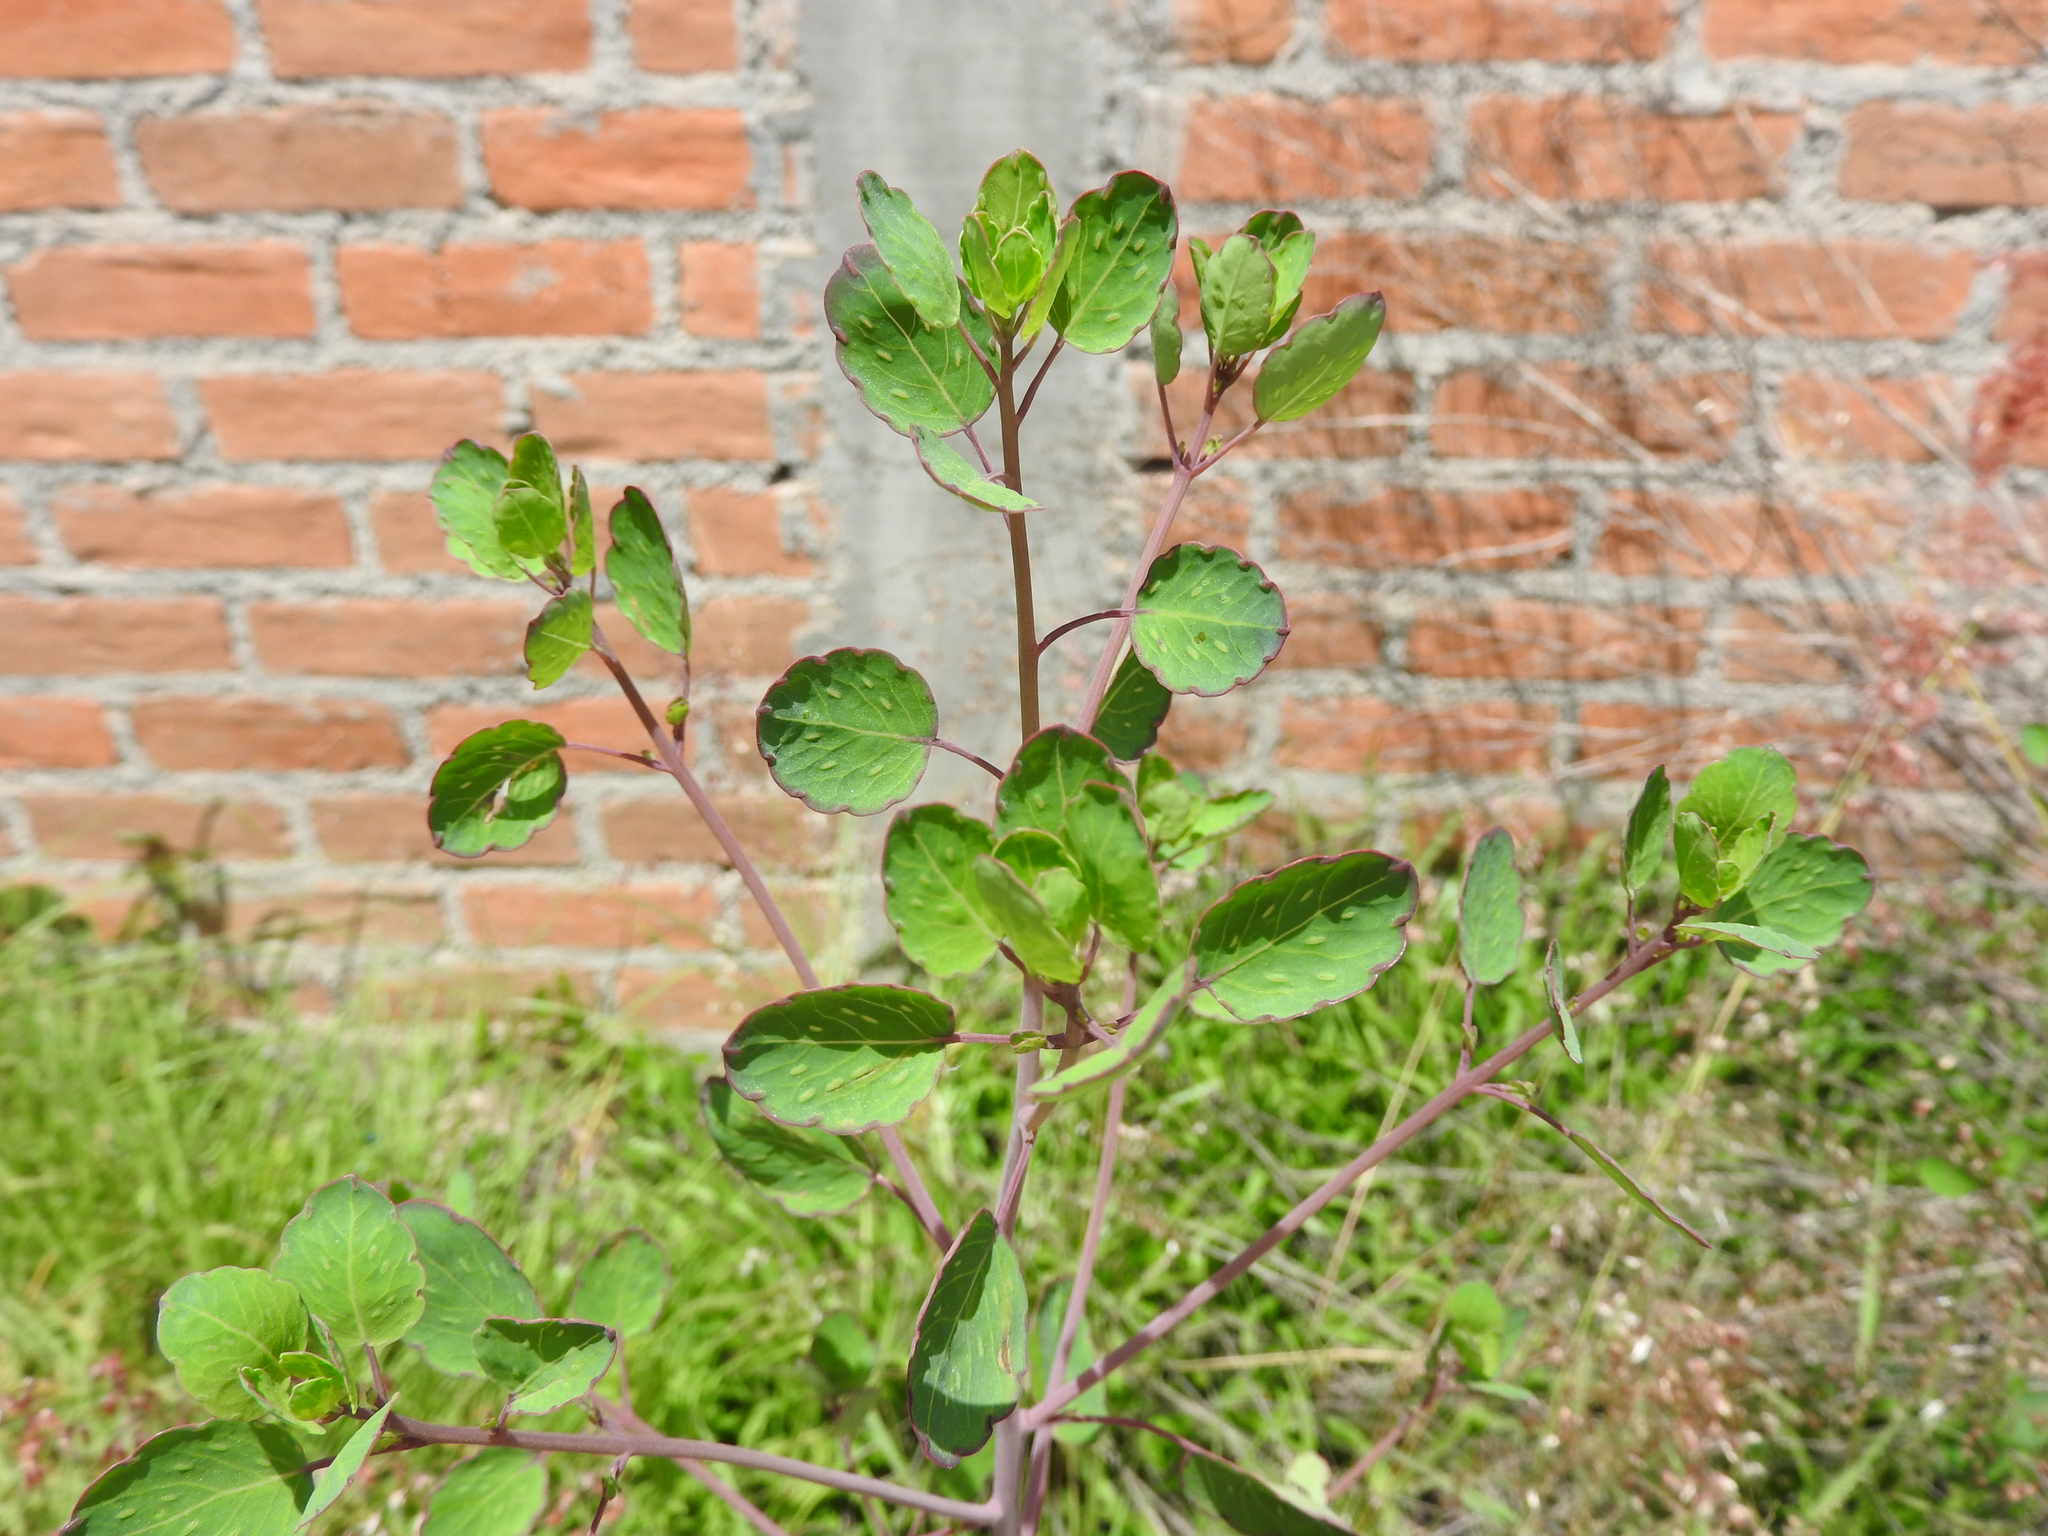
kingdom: Plantae
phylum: Tracheophyta
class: Magnoliopsida
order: Asterales
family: Asteraceae
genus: Porophyllum
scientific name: Porophyllum ruderale
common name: Yerba porosa
